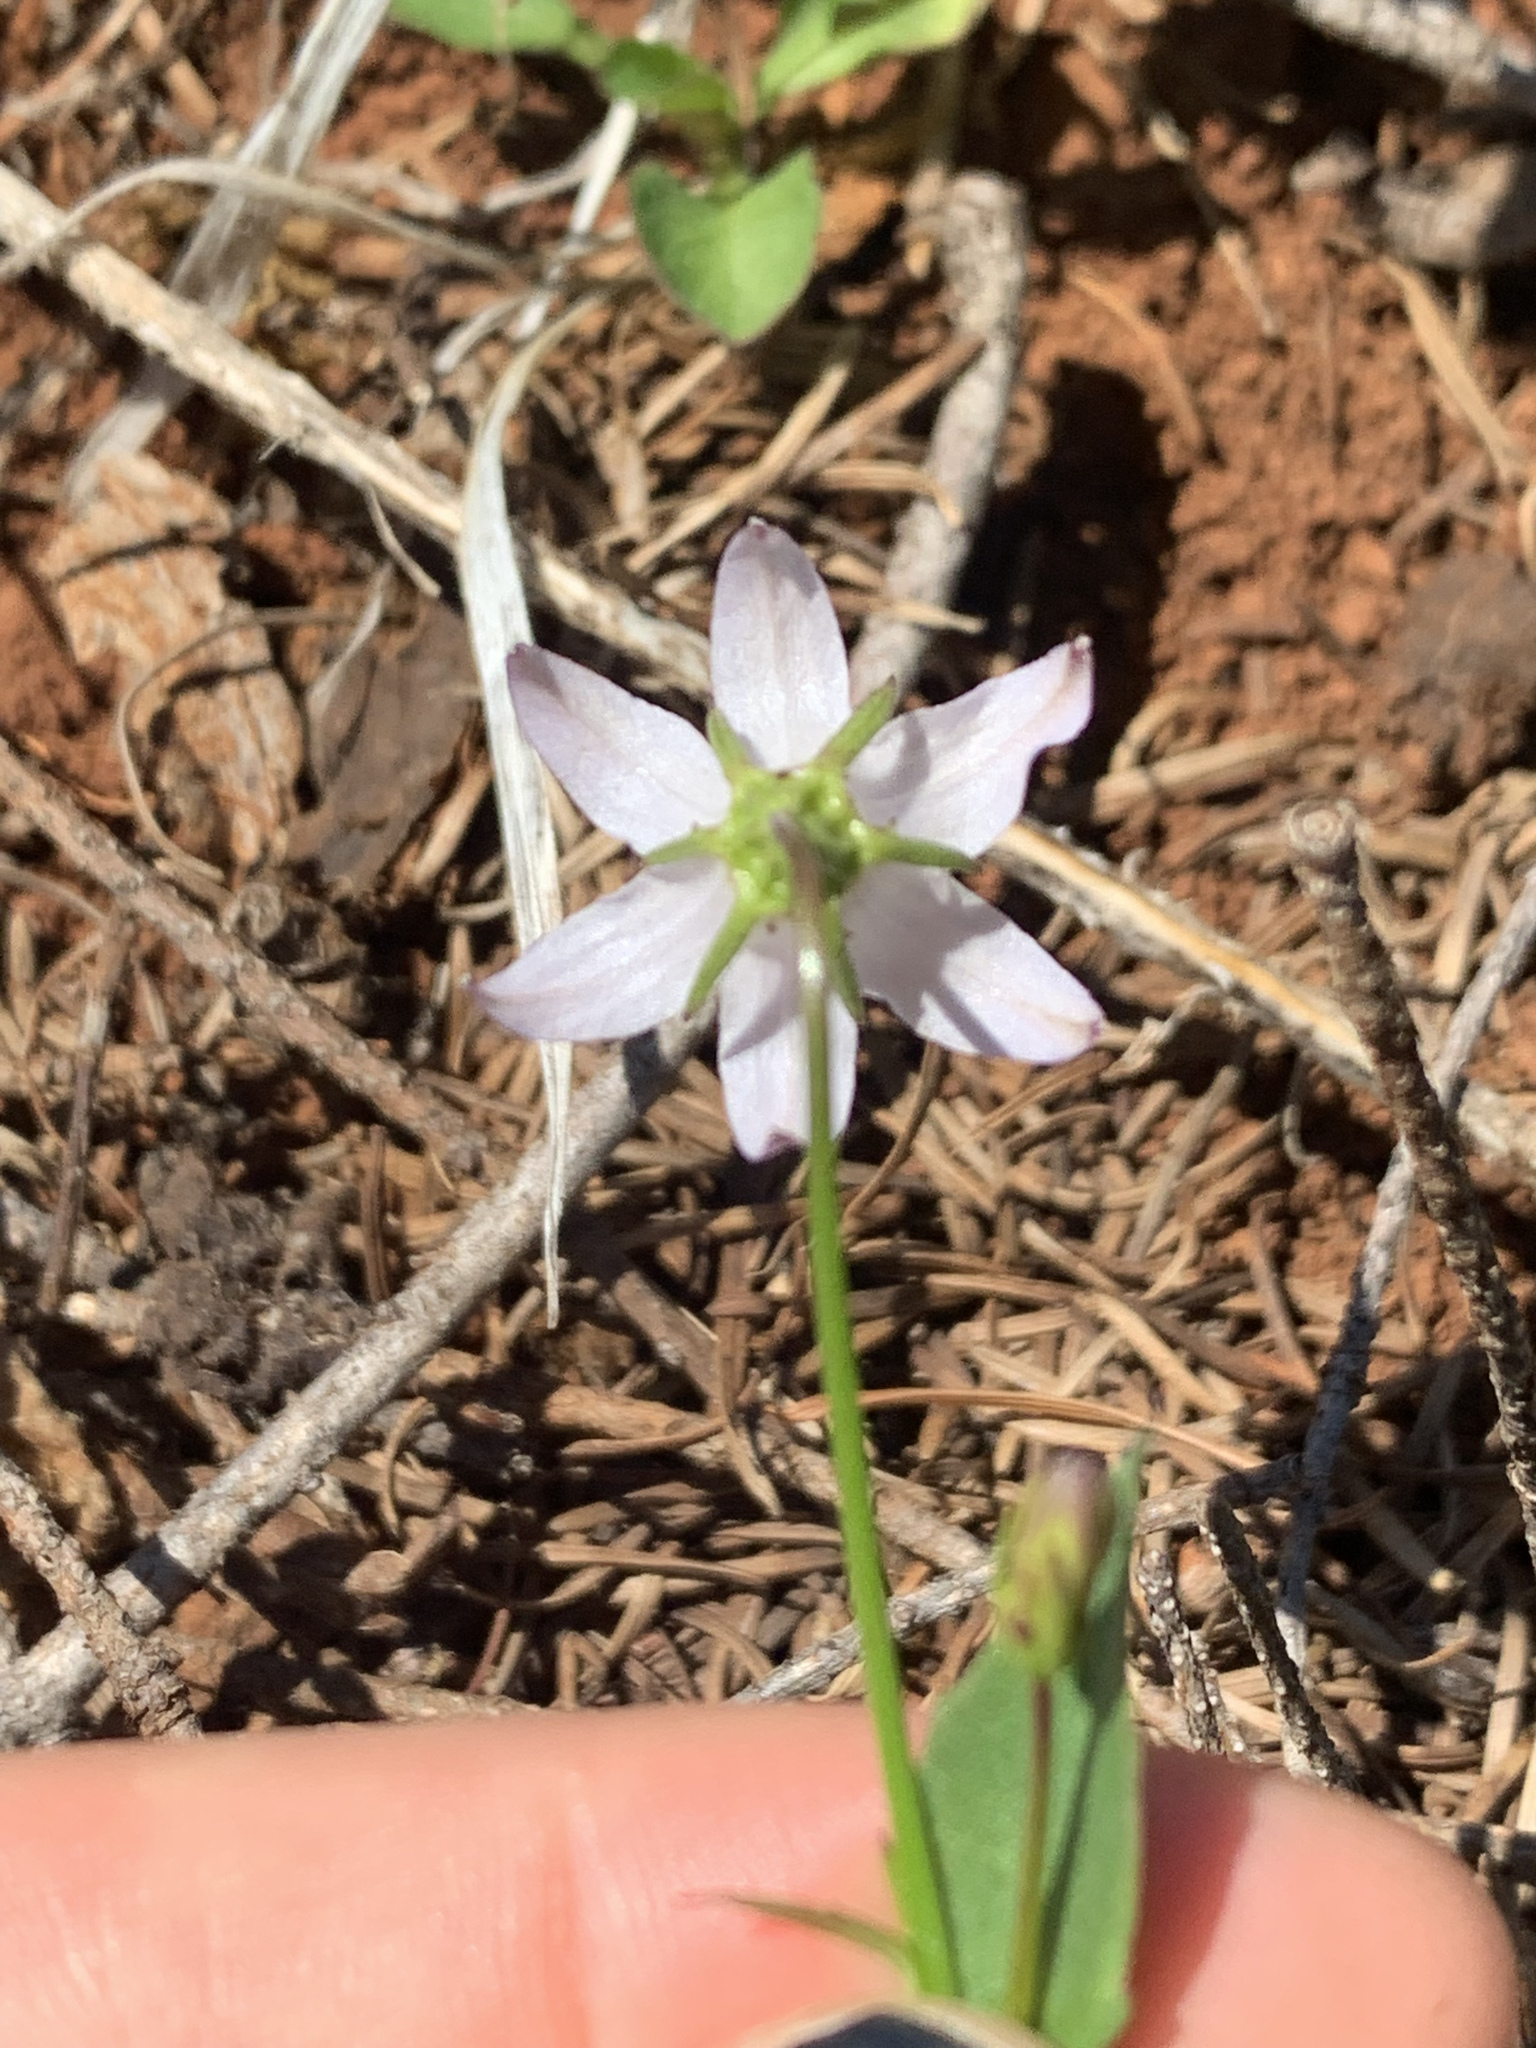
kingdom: Plantae
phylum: Tracheophyta
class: Magnoliopsida
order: Asterales
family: Campanulaceae
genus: Campanula
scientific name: Campanula scouleri
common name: Scouler's harebell
